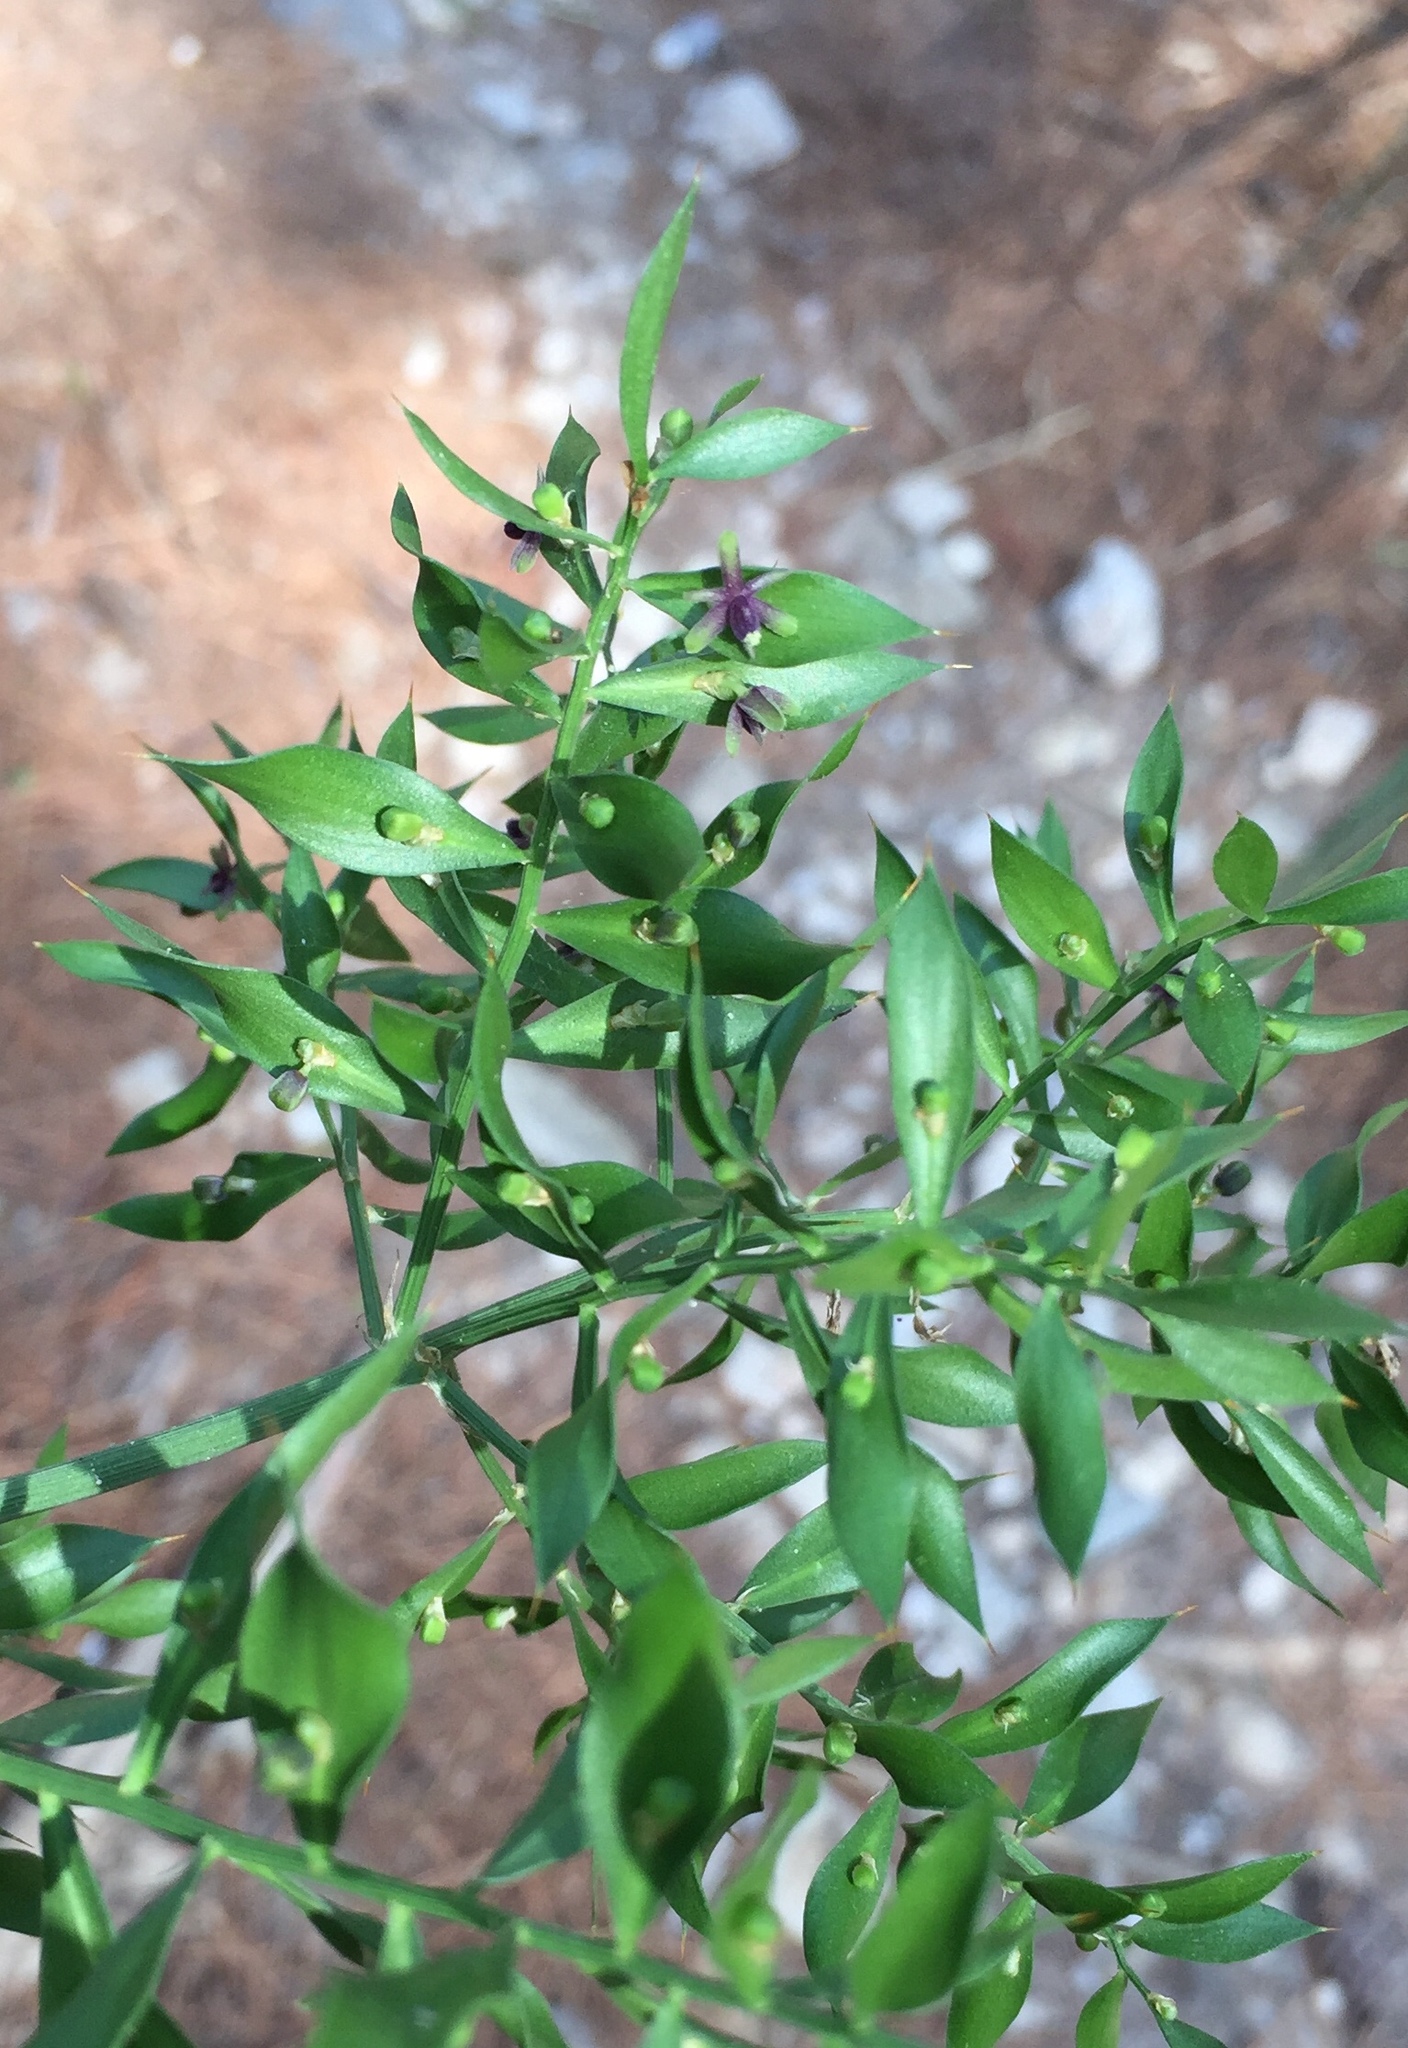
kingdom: Plantae
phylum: Tracheophyta
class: Liliopsida
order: Asparagales
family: Asparagaceae
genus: Ruscus
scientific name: Ruscus aculeatus
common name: Butcher's-broom
